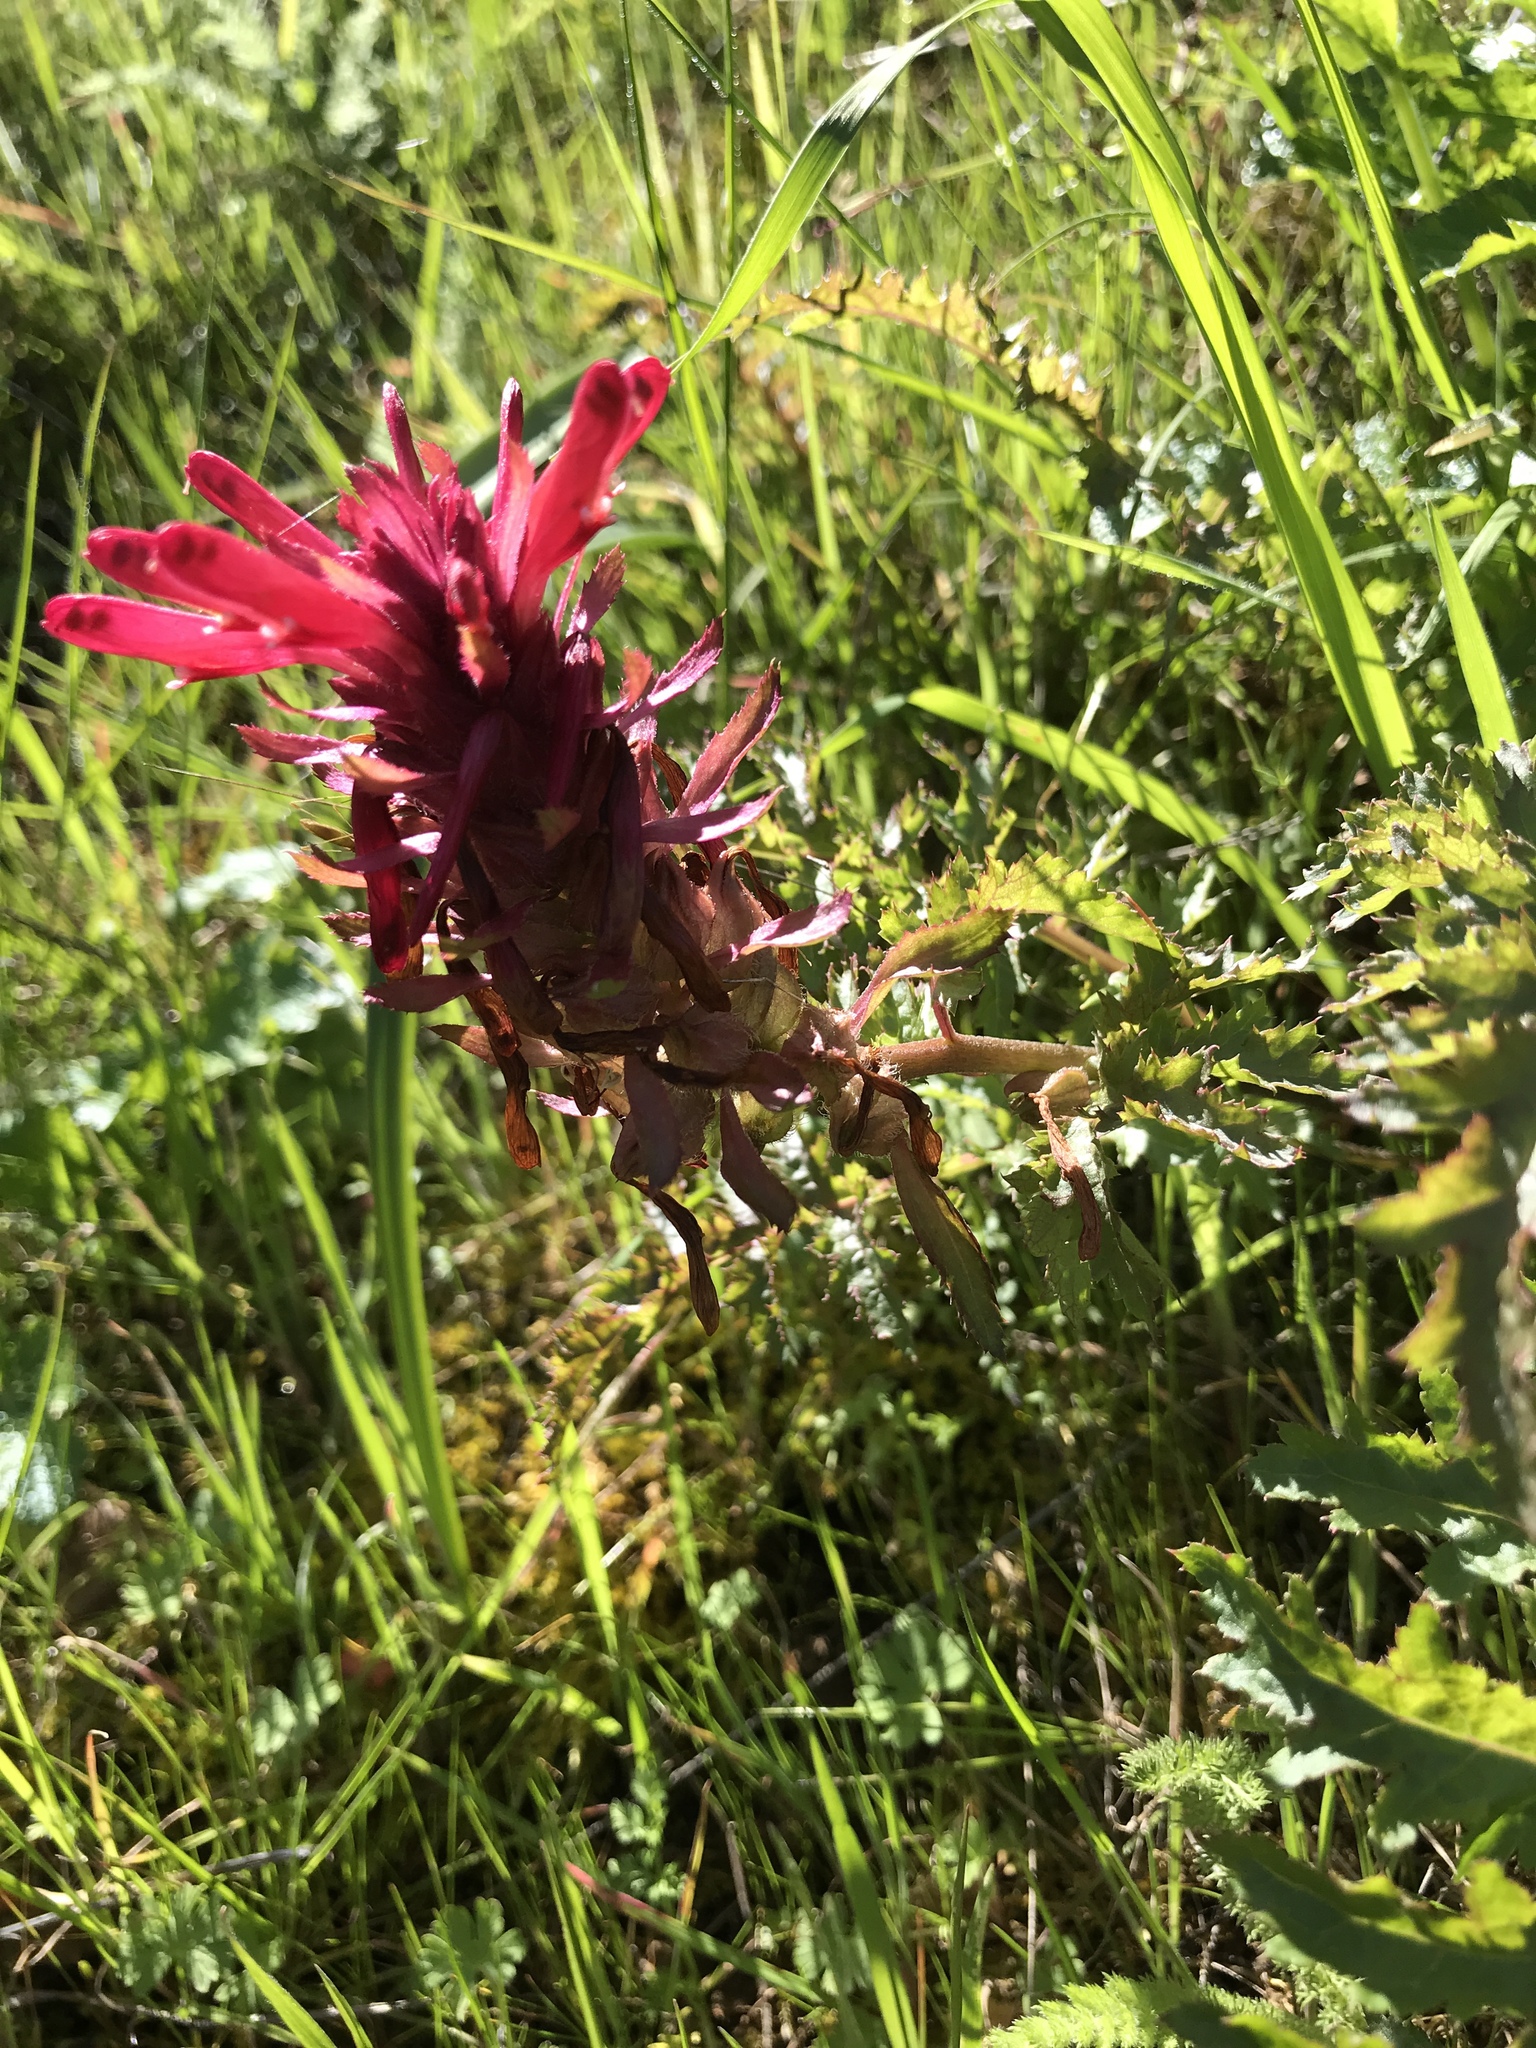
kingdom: Plantae
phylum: Tracheophyta
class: Magnoliopsida
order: Lamiales
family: Orobanchaceae
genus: Pedicularis
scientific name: Pedicularis densiflora
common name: Indian warrior
